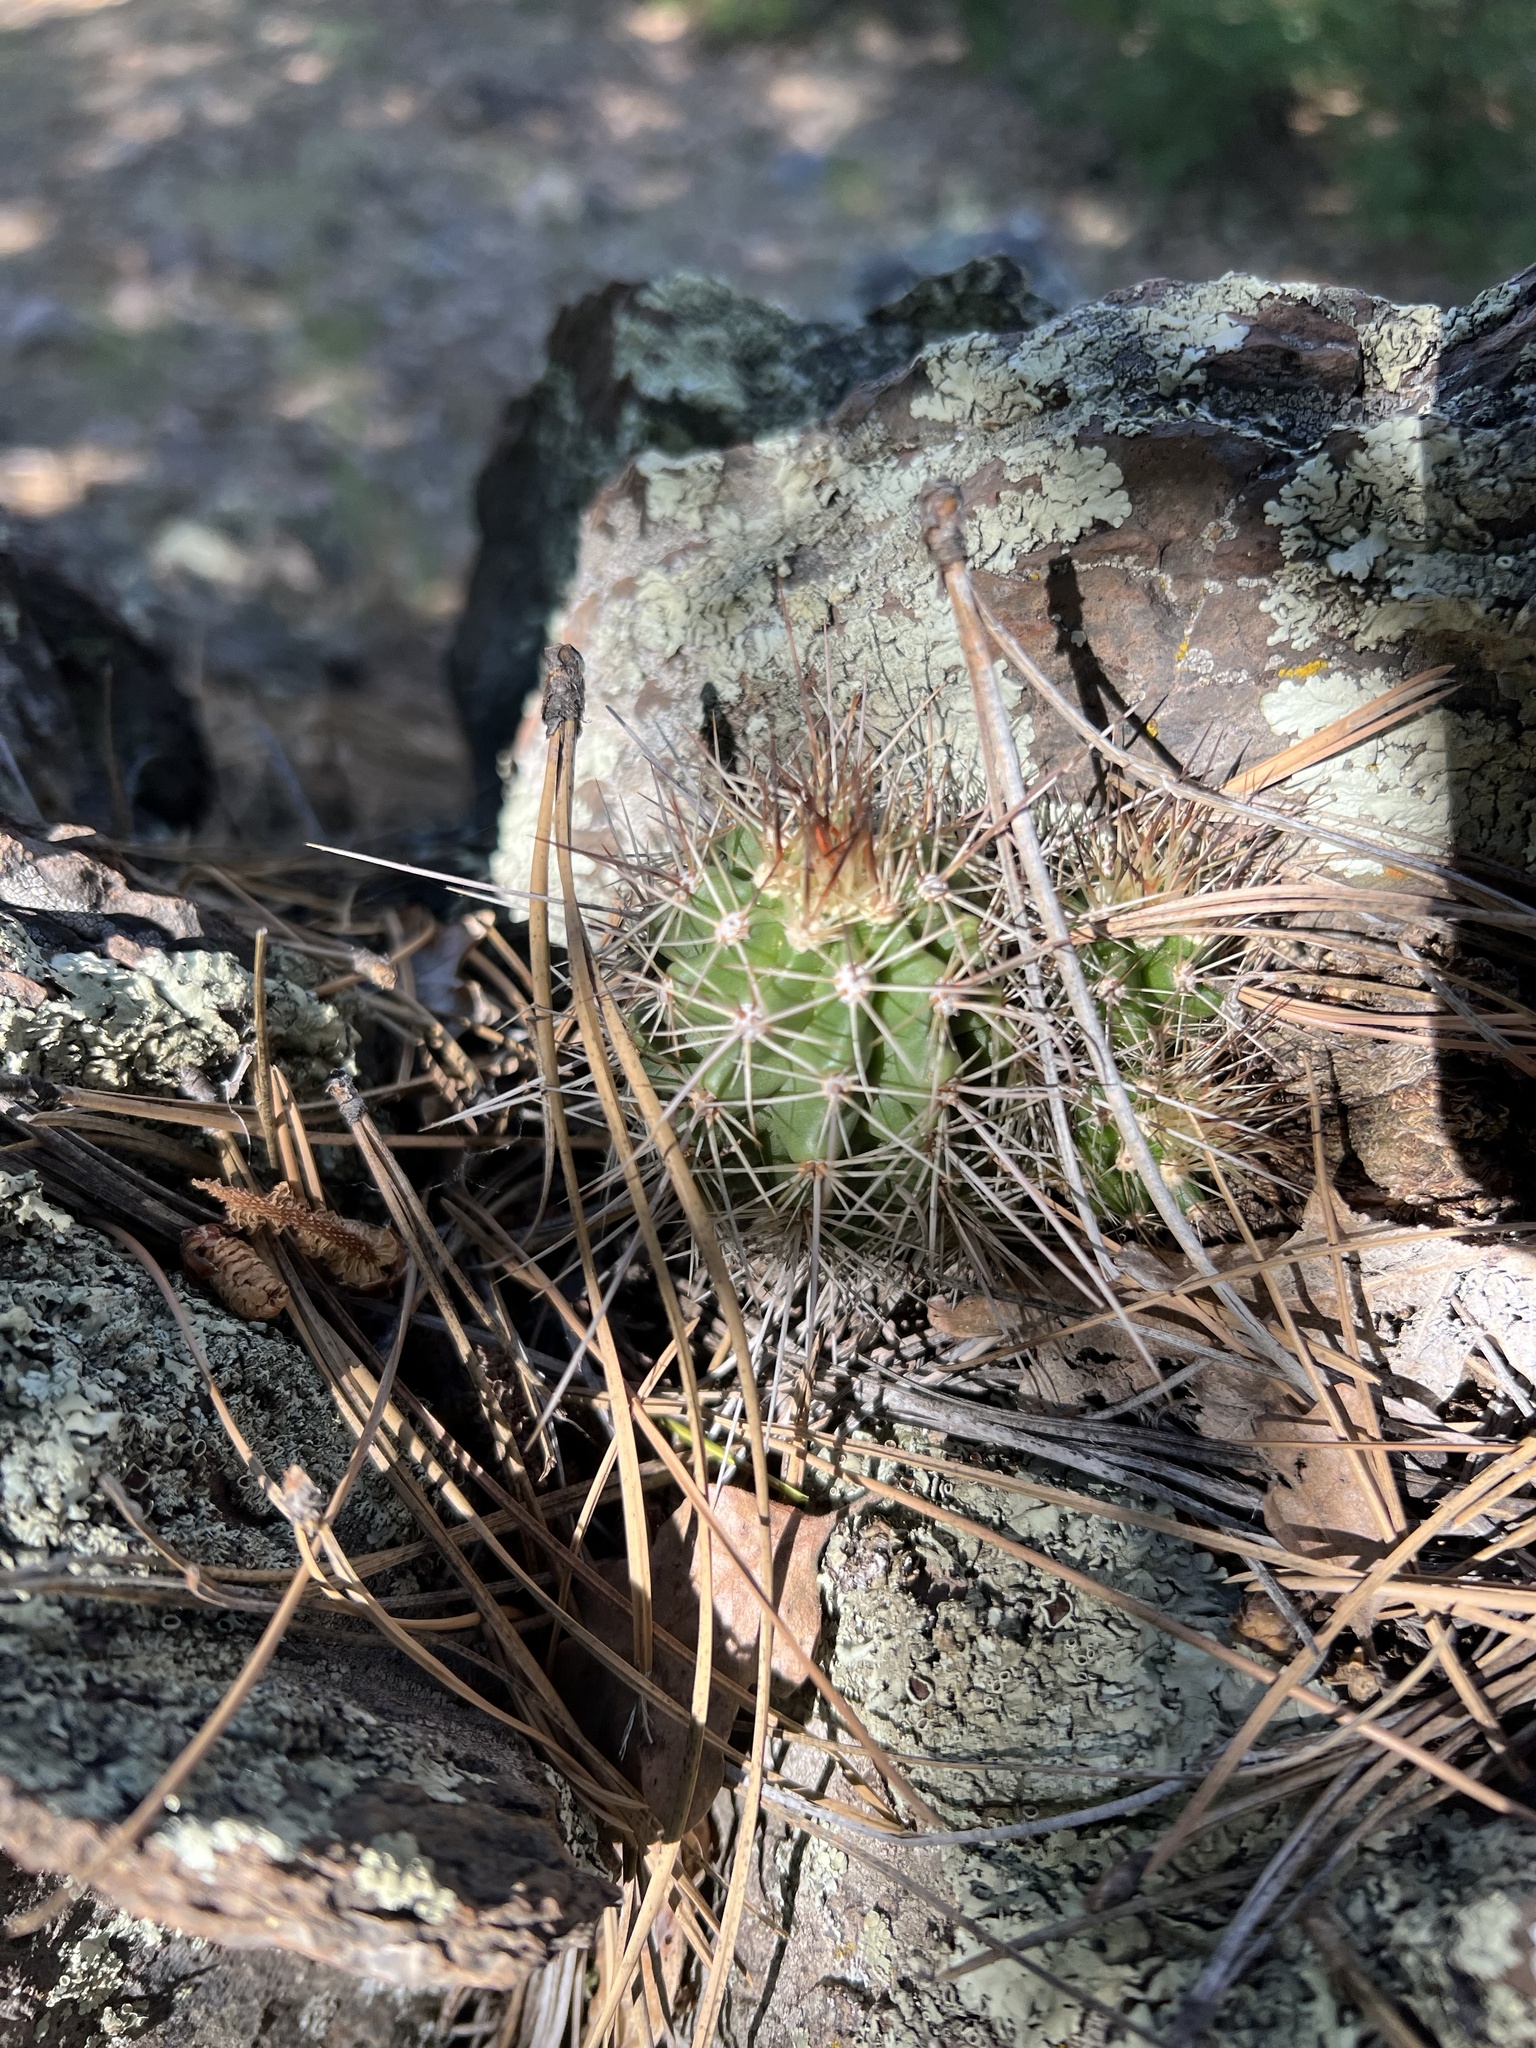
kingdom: Plantae
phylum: Tracheophyta
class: Magnoliopsida
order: Caryophyllales
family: Cactaceae
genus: Echinocereus
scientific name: Echinocereus bakeri
